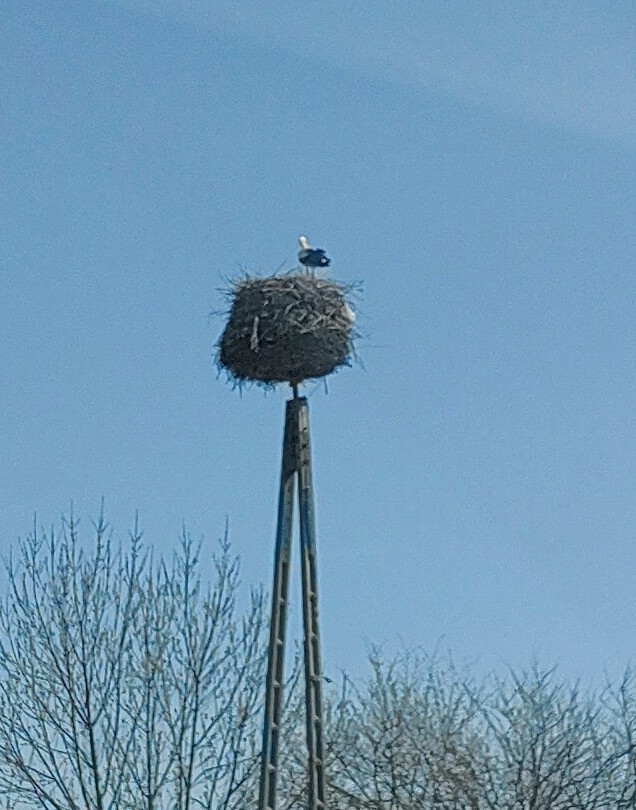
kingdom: Animalia
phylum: Chordata
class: Aves
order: Ciconiiformes
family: Ciconiidae
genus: Ciconia
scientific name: Ciconia ciconia
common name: White stork
